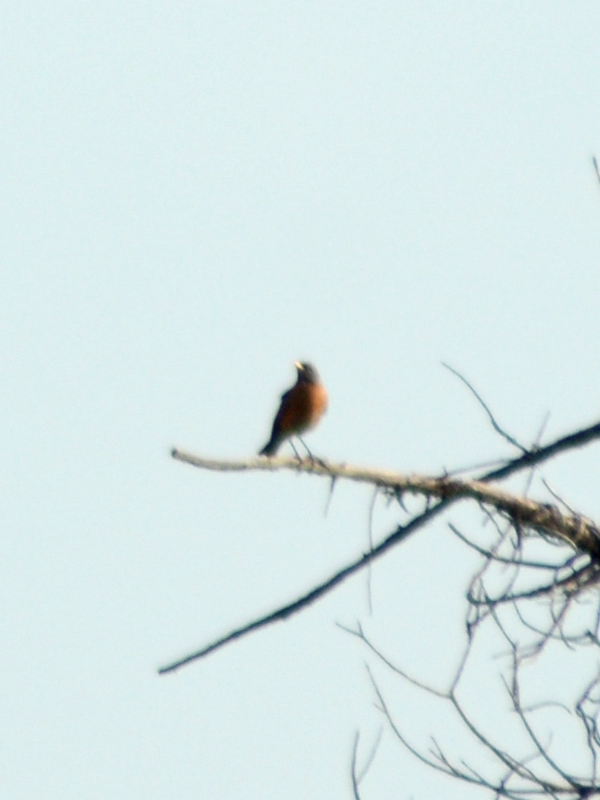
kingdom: Animalia
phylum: Chordata
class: Aves
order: Passeriformes
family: Turdidae
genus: Turdus
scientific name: Turdus migratorius
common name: American robin
